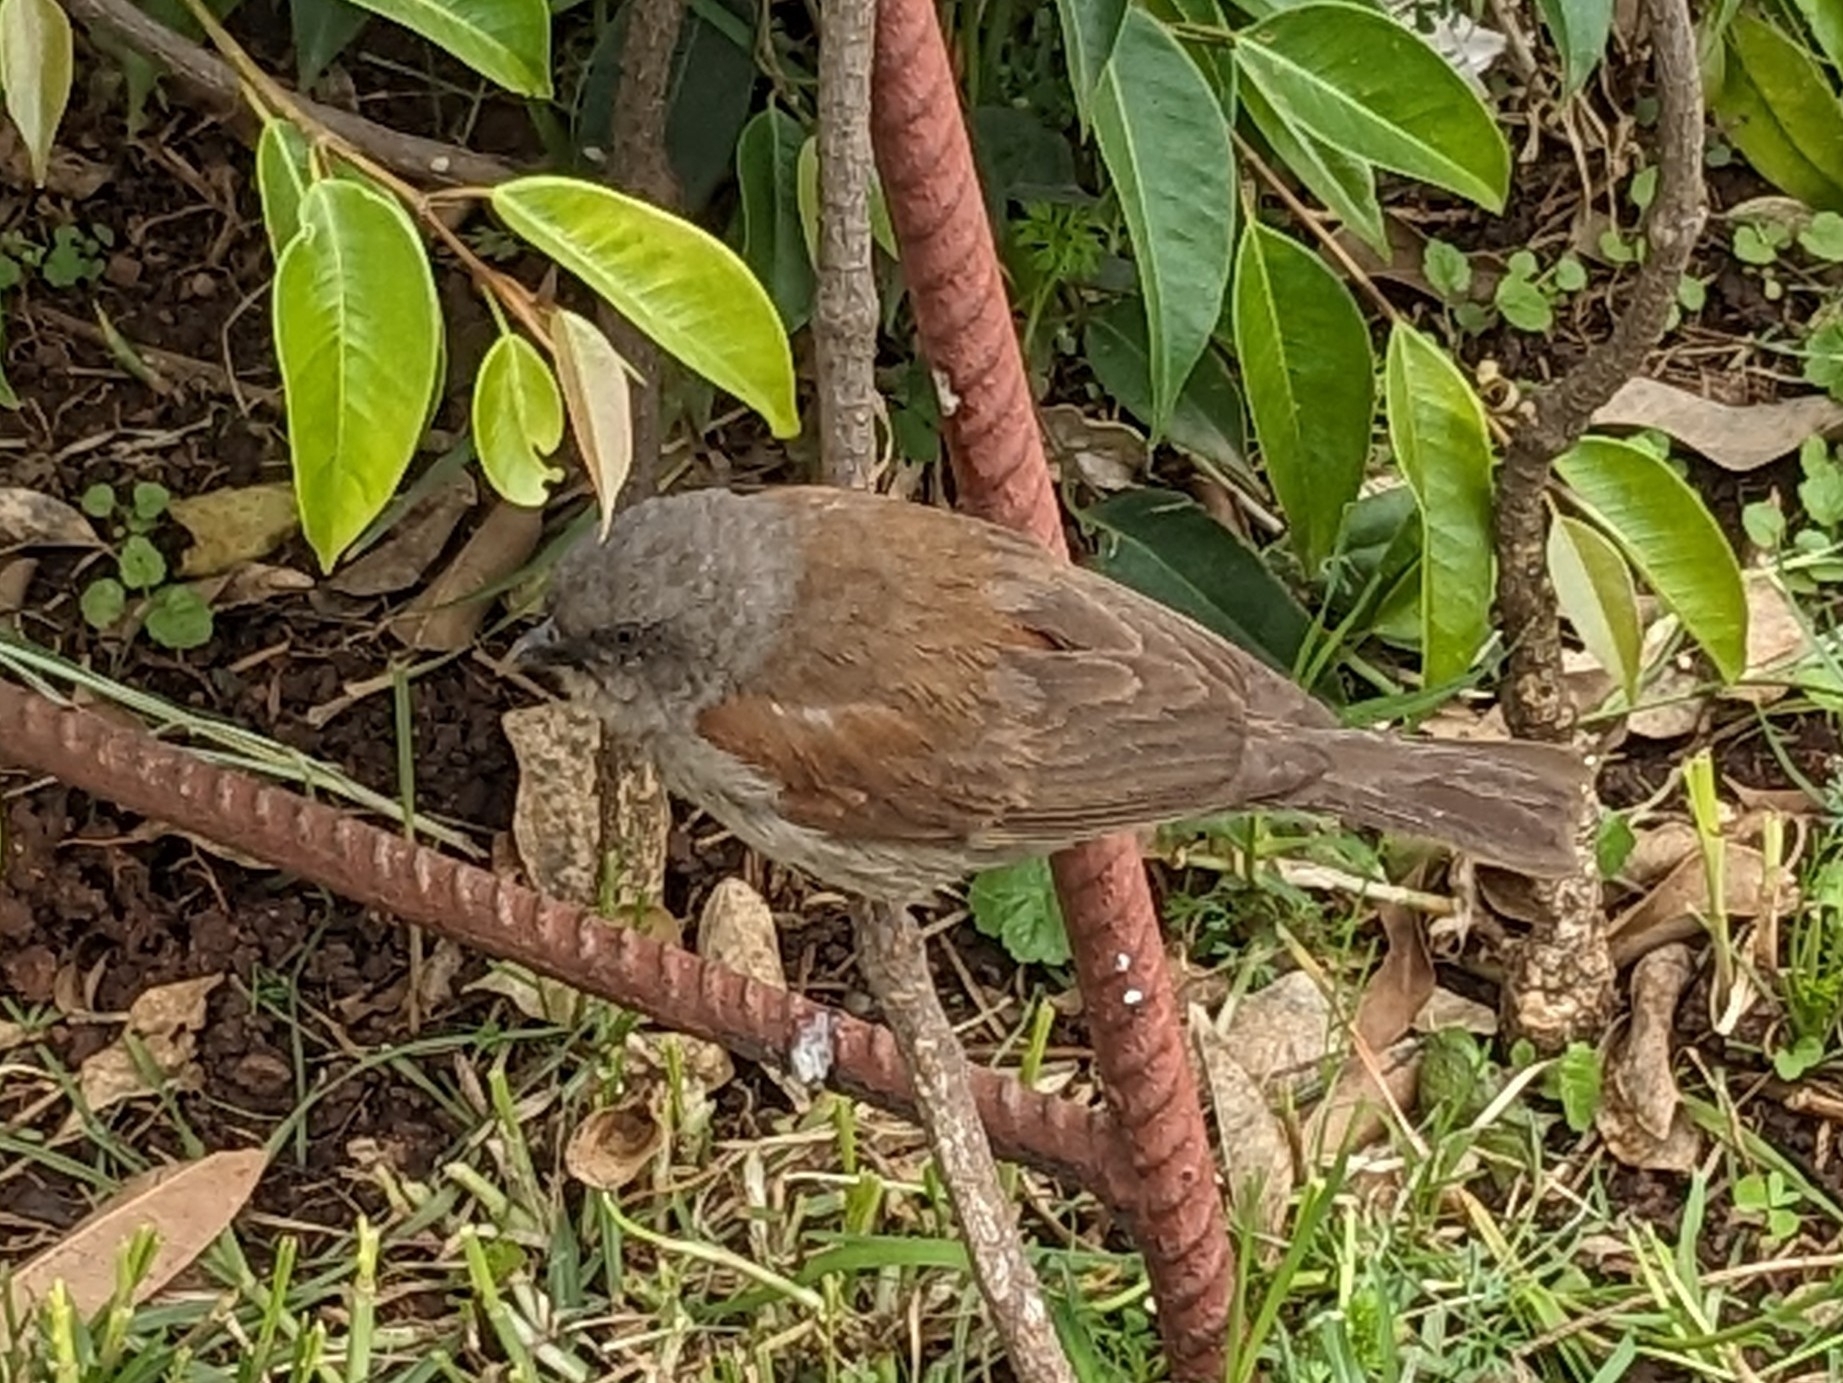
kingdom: Animalia
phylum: Chordata
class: Aves
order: Passeriformes
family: Passeridae
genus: Passer
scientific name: Passer swainsonii
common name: Swainson's sparrow
